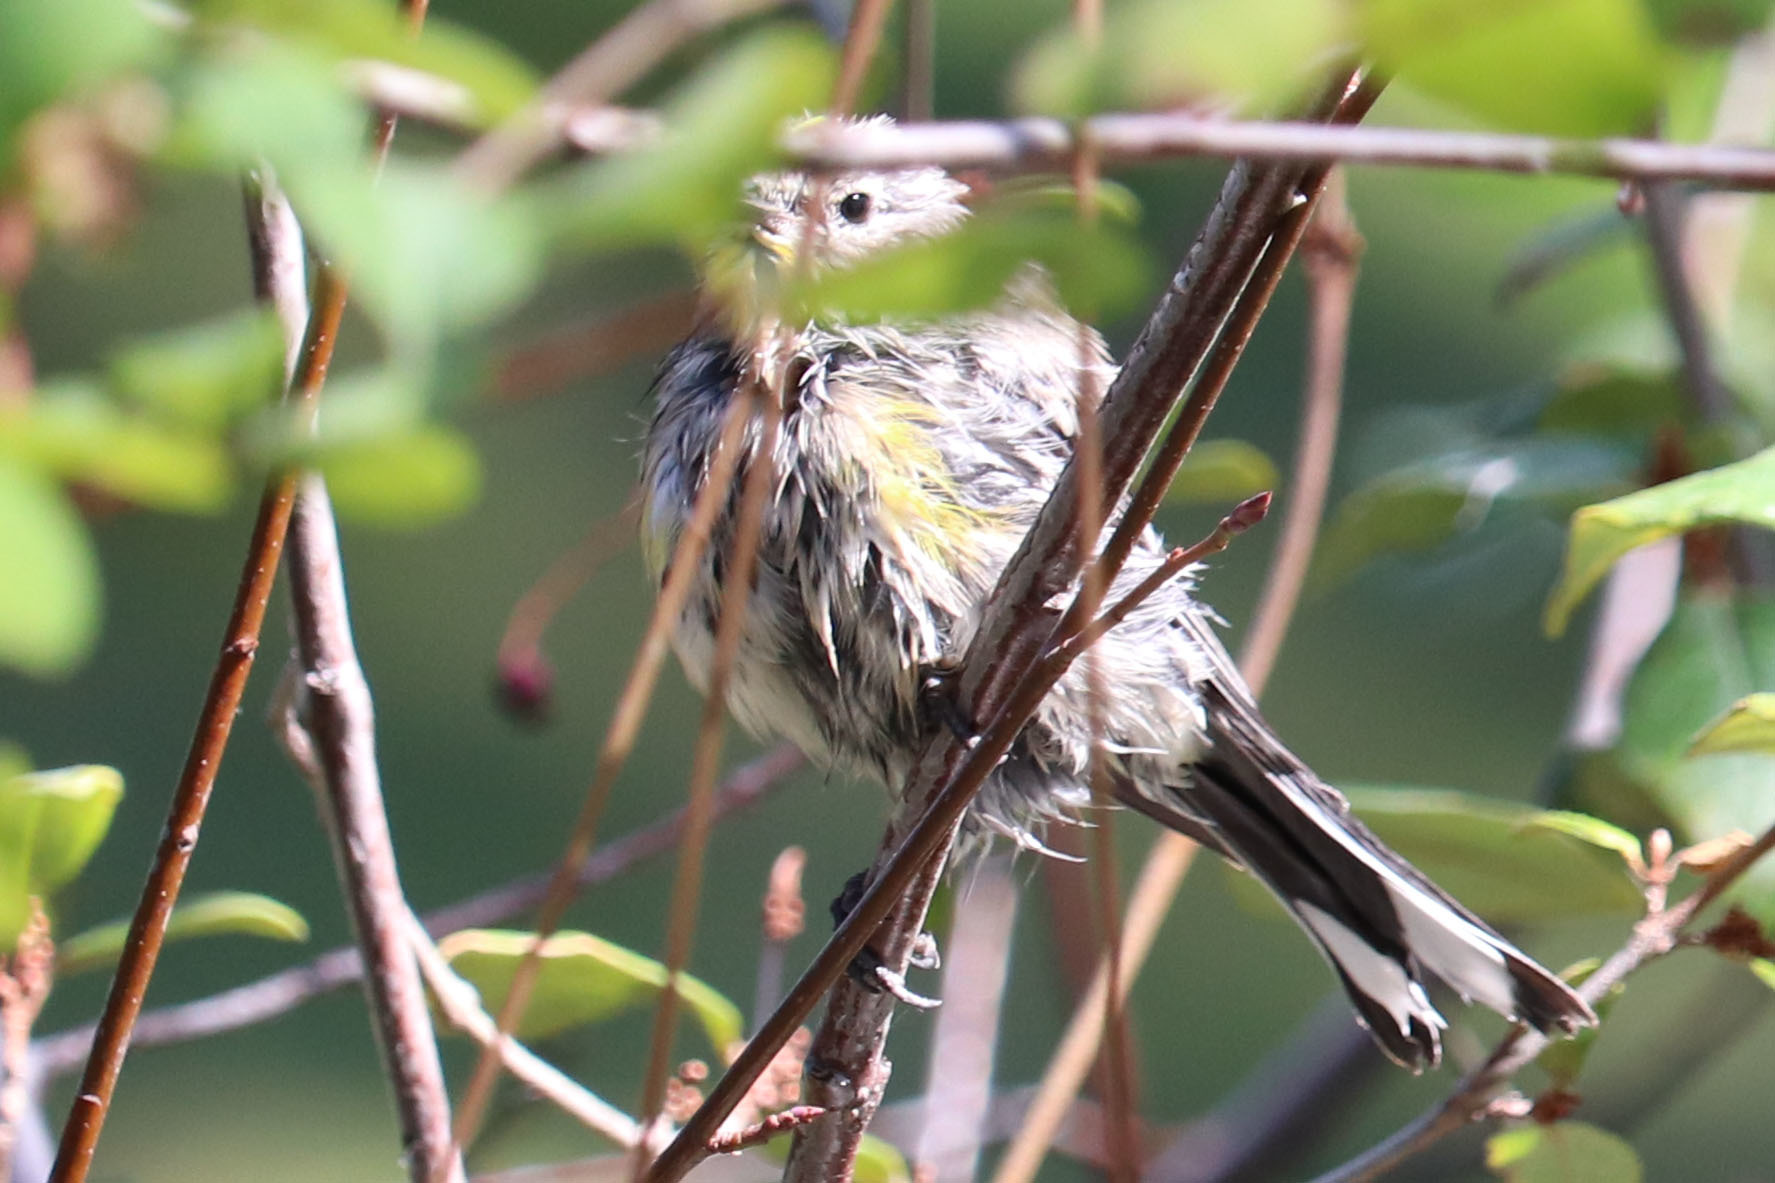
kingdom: Animalia
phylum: Chordata
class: Aves
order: Passeriformes
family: Parulidae
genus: Setophaga
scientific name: Setophaga coronata
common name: Myrtle warbler
